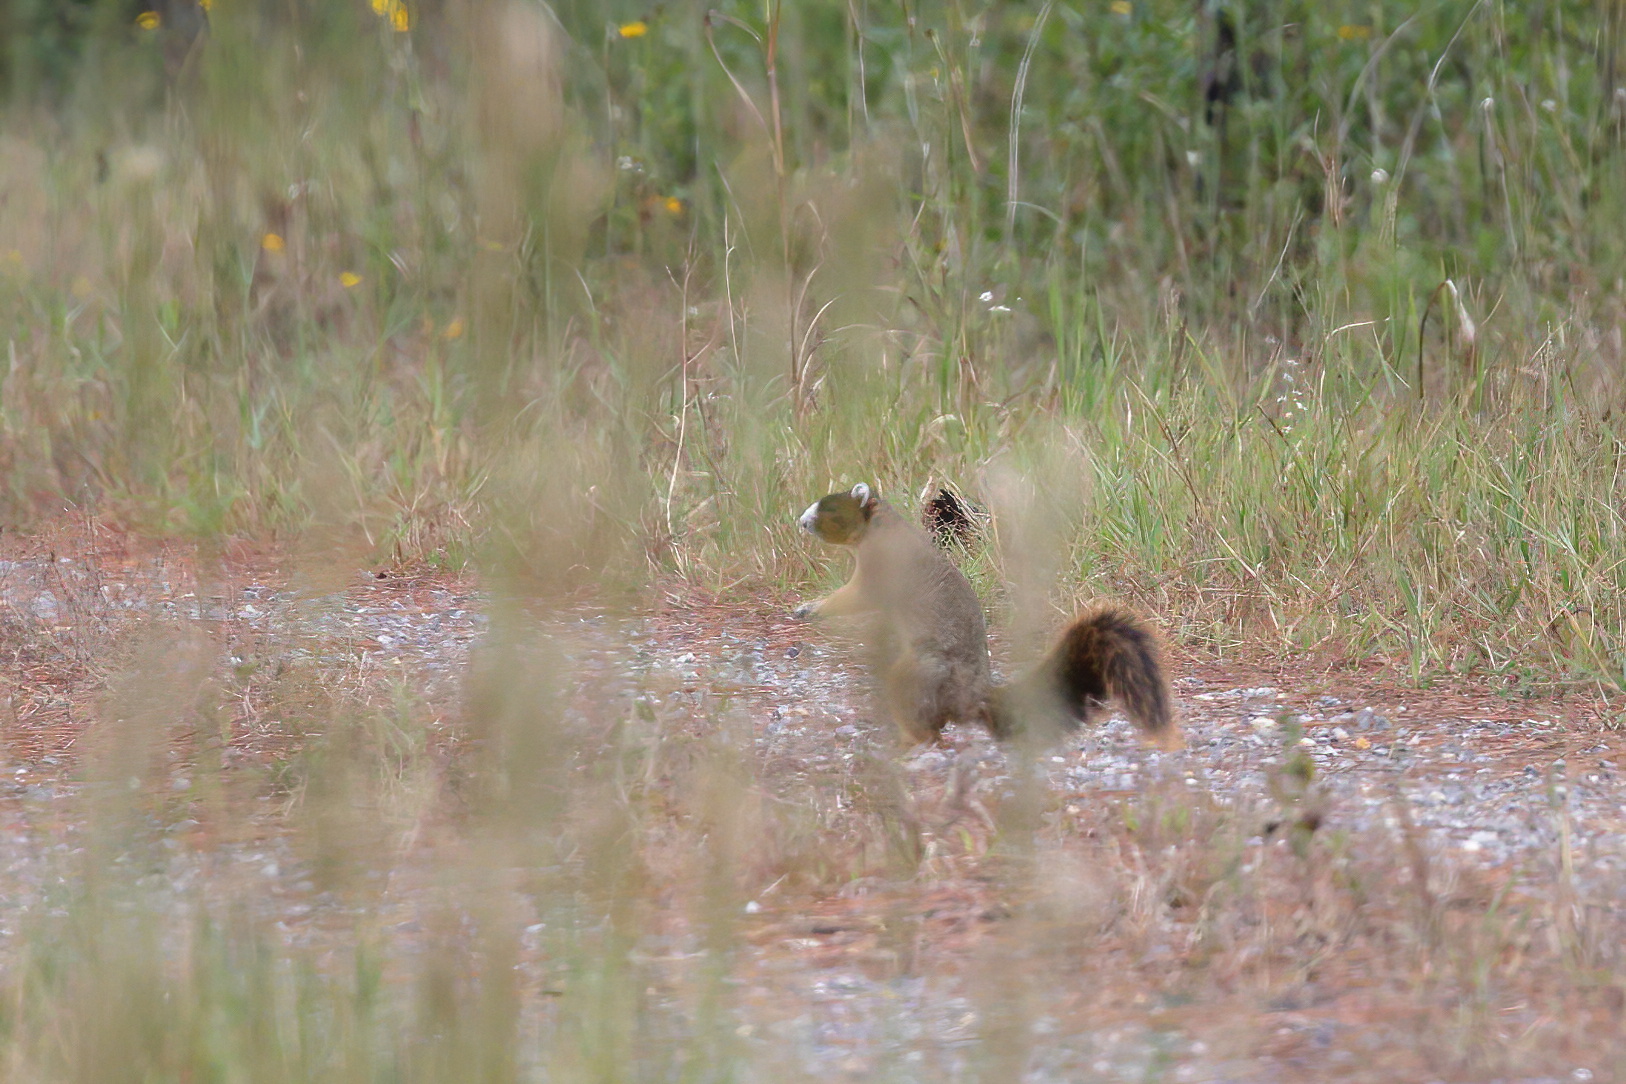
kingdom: Animalia
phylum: Chordata
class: Mammalia
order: Rodentia
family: Sciuridae
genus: Sciurus
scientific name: Sciurus niger
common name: Fox squirrel
